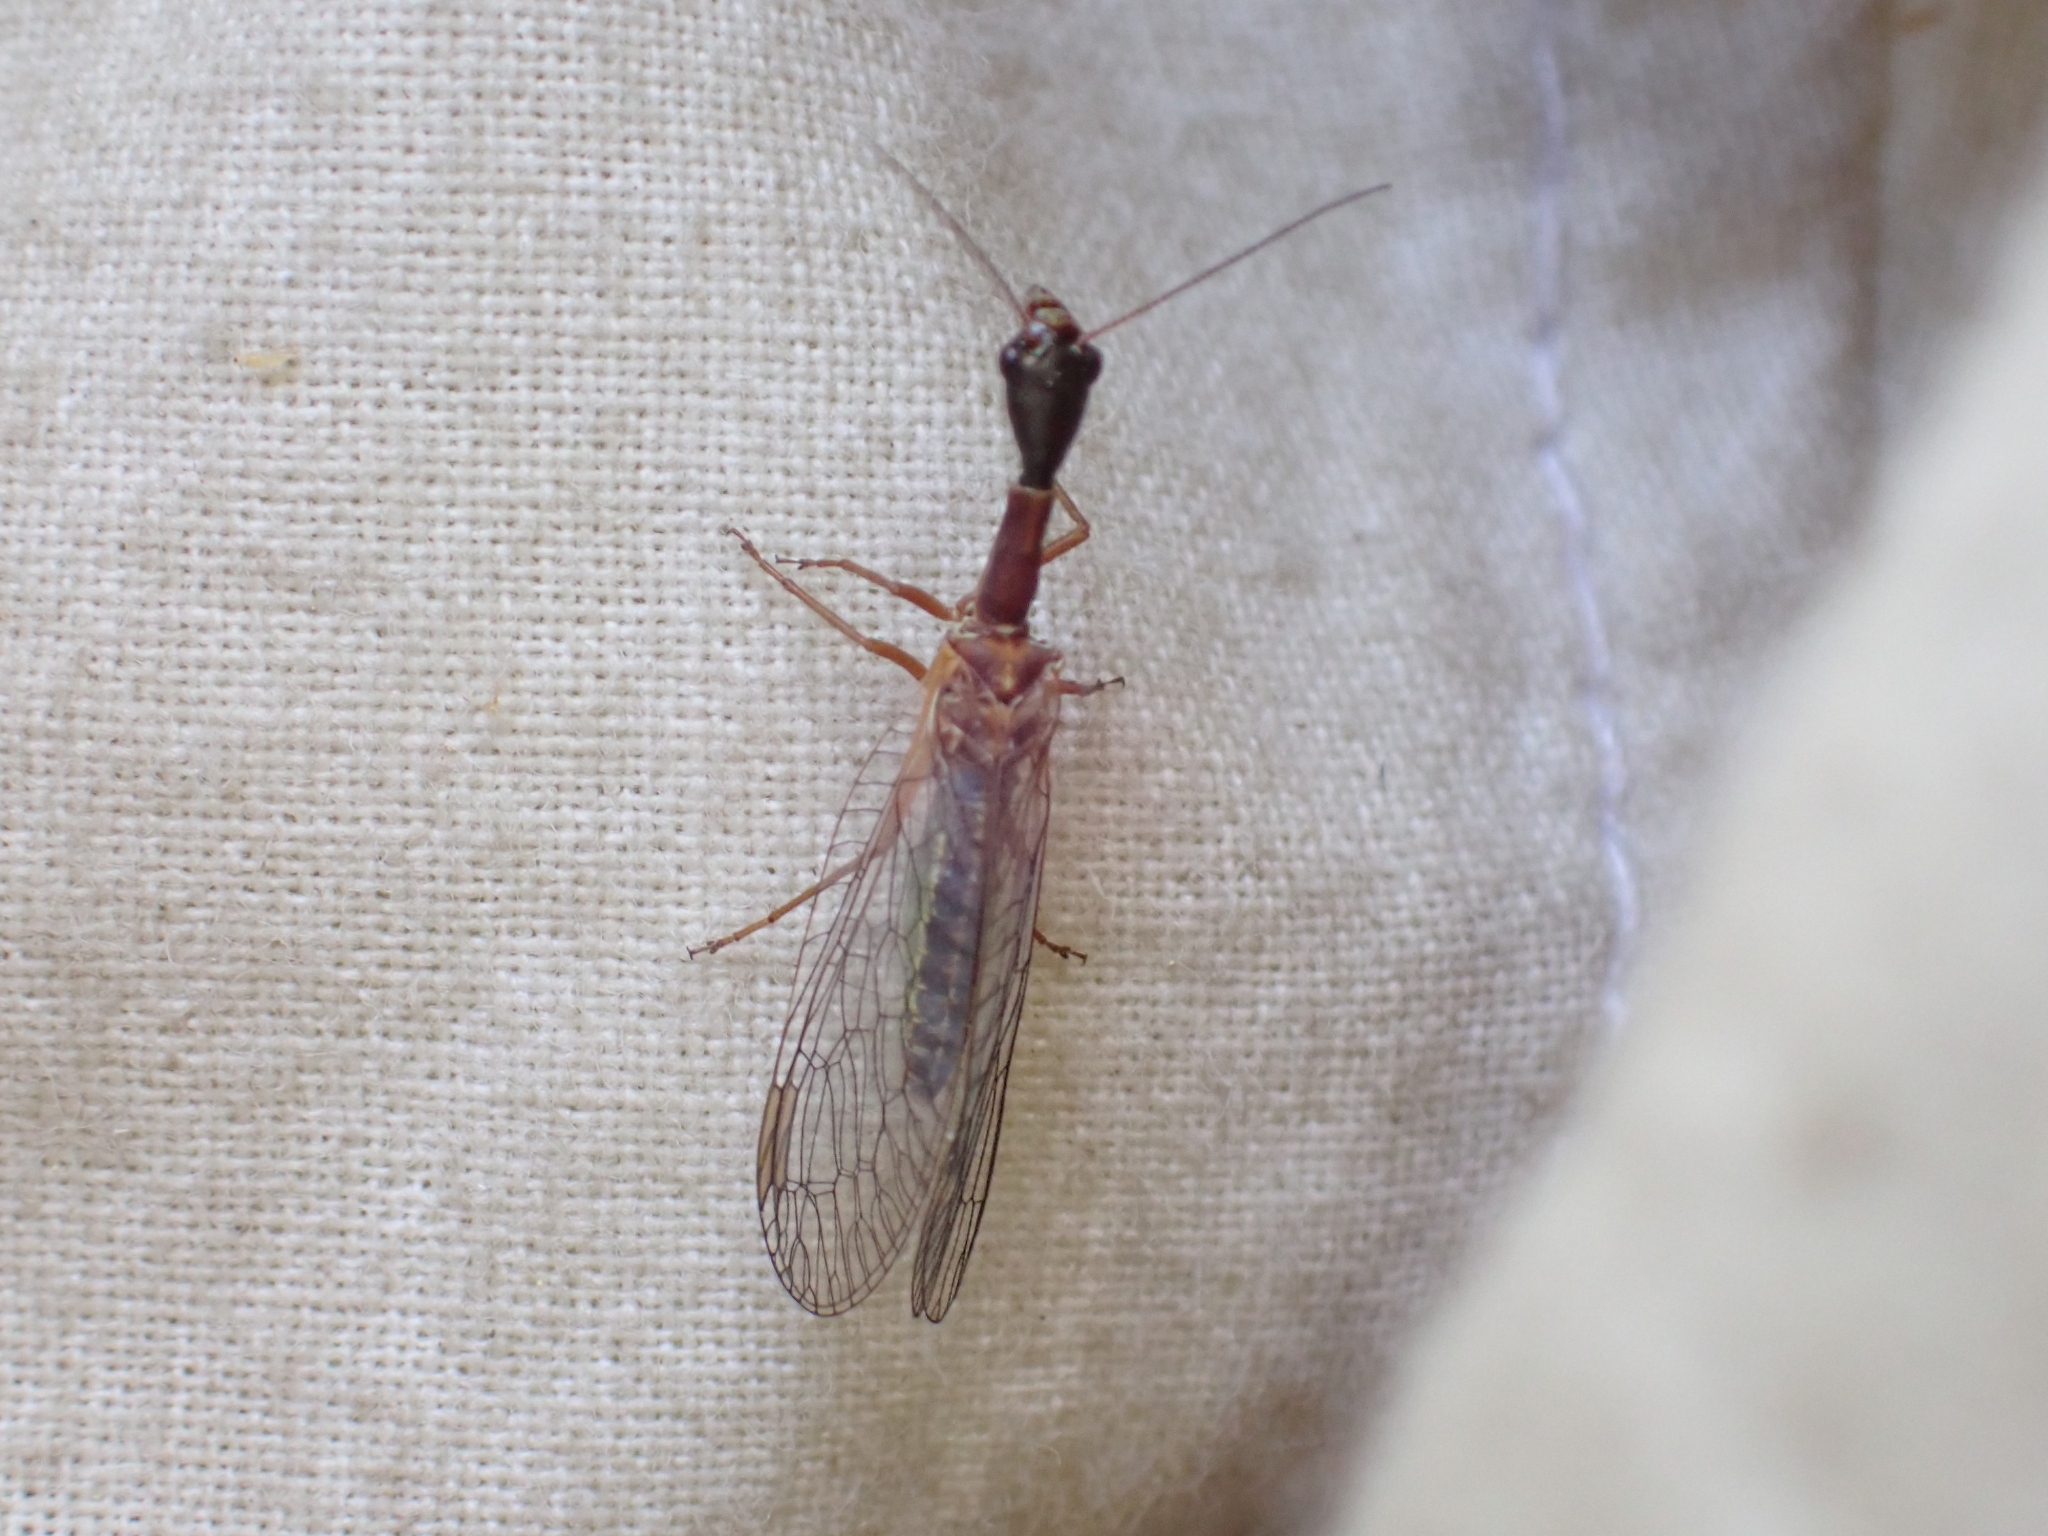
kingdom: Animalia
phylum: Arthropoda
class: Insecta
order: Raphidioptera
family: Raphidiidae
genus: Agulla
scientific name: Agulla unicolor
